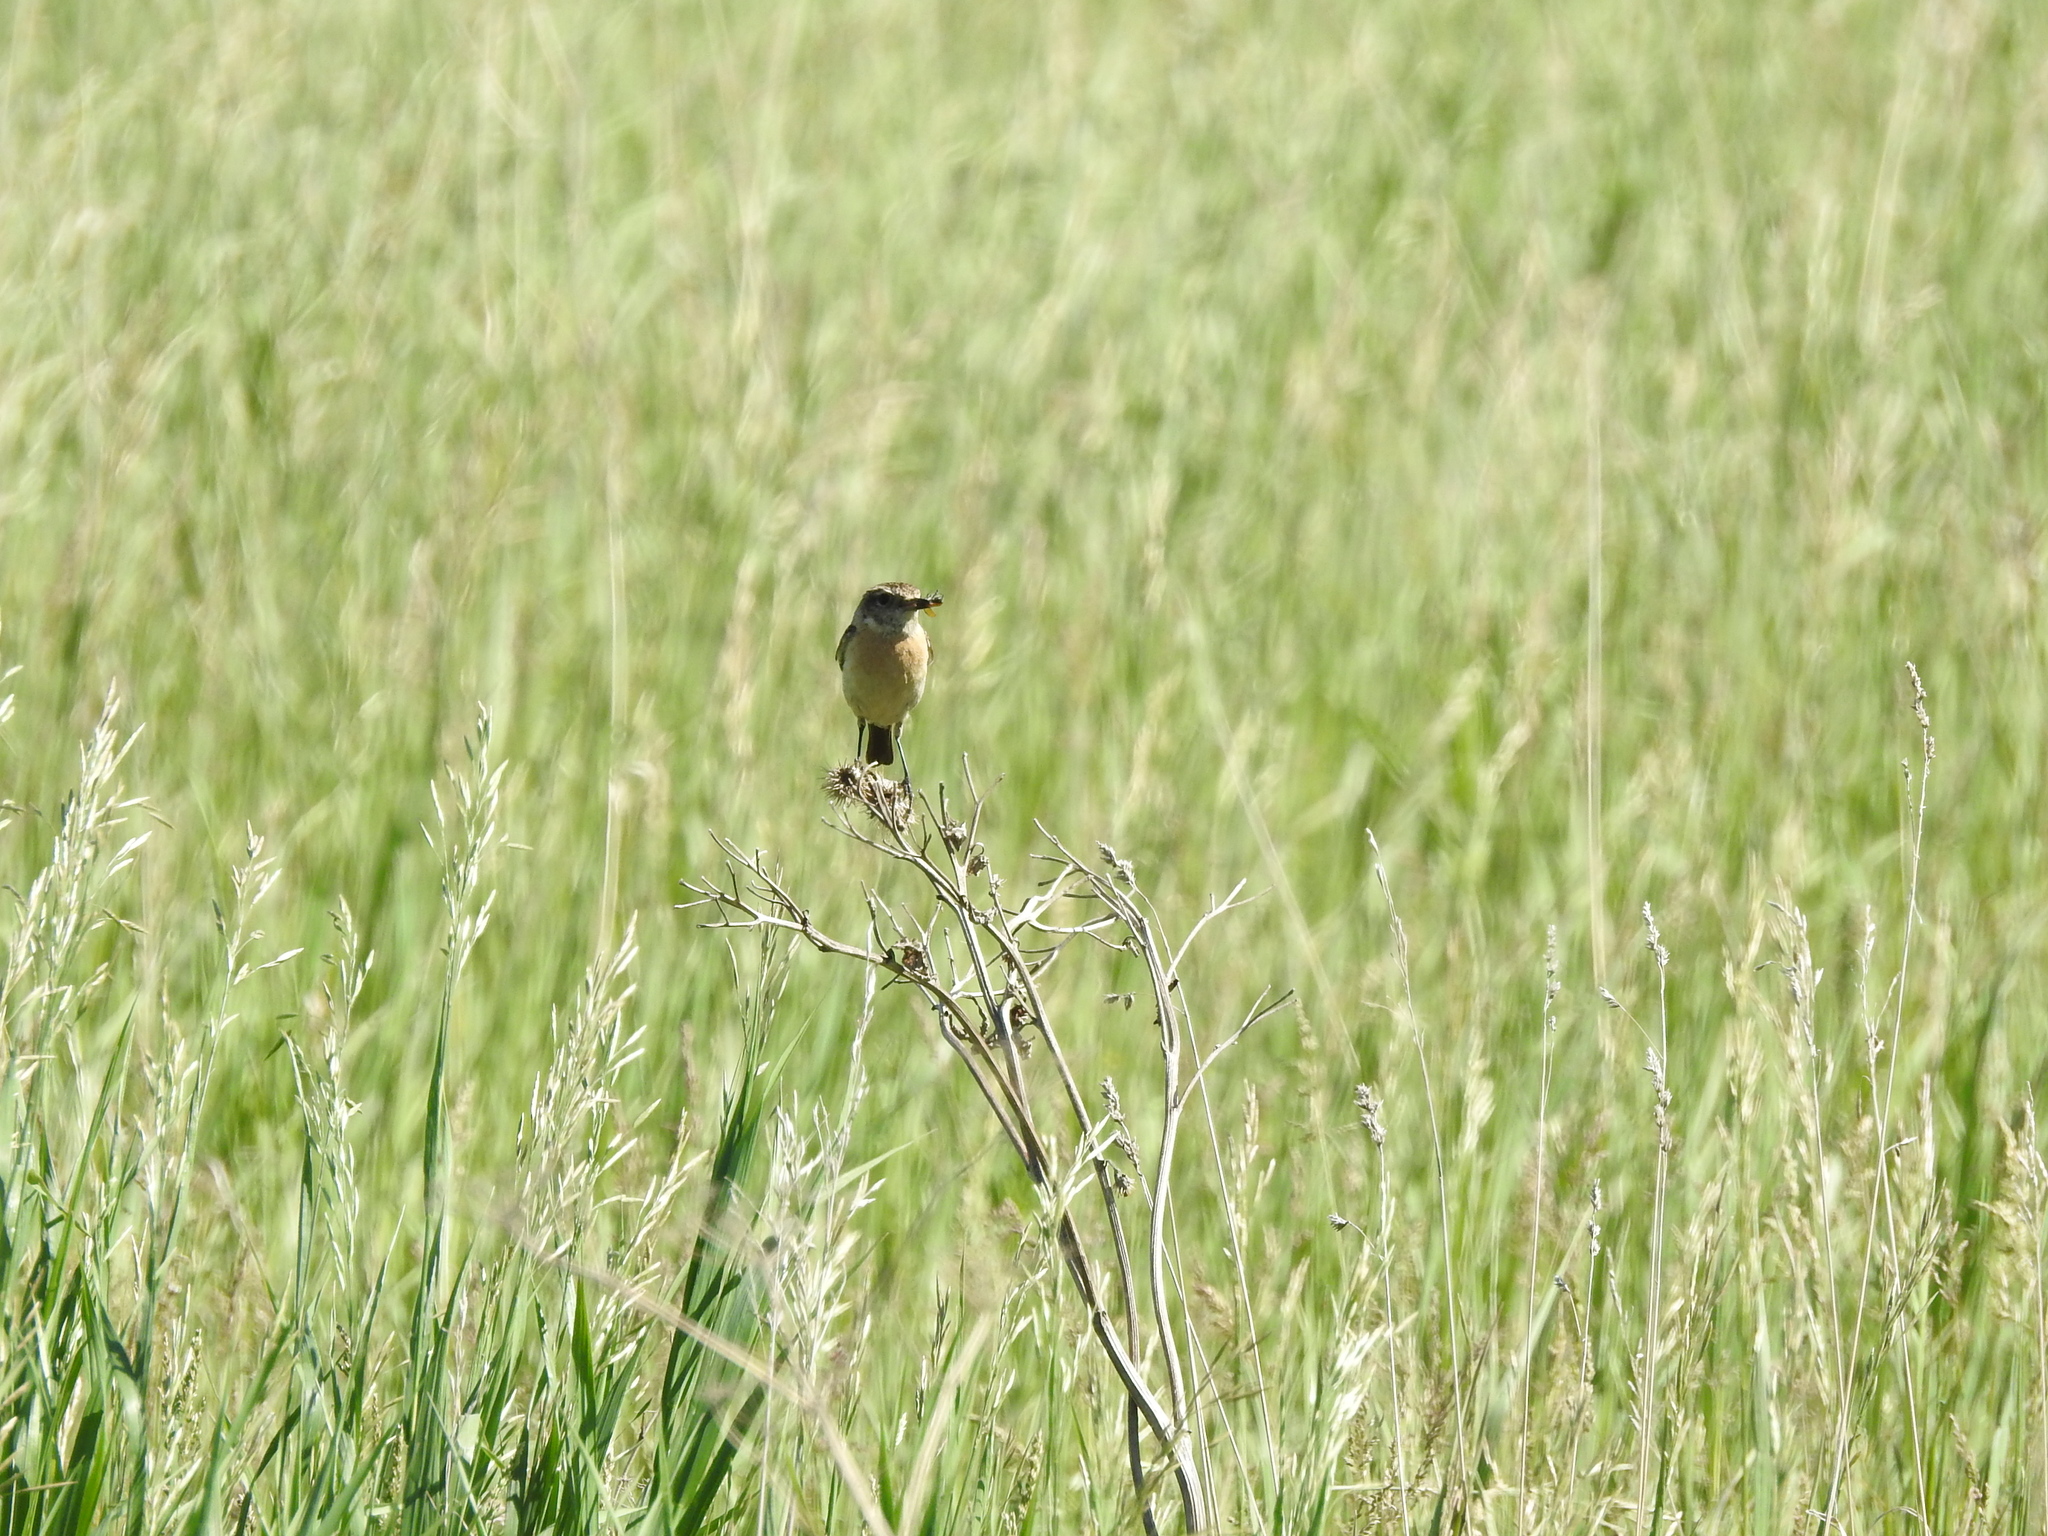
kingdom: Animalia
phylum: Chordata
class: Aves
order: Passeriformes
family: Muscicapidae
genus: Saxicola
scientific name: Saxicola maurus
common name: Siberian stonechat
